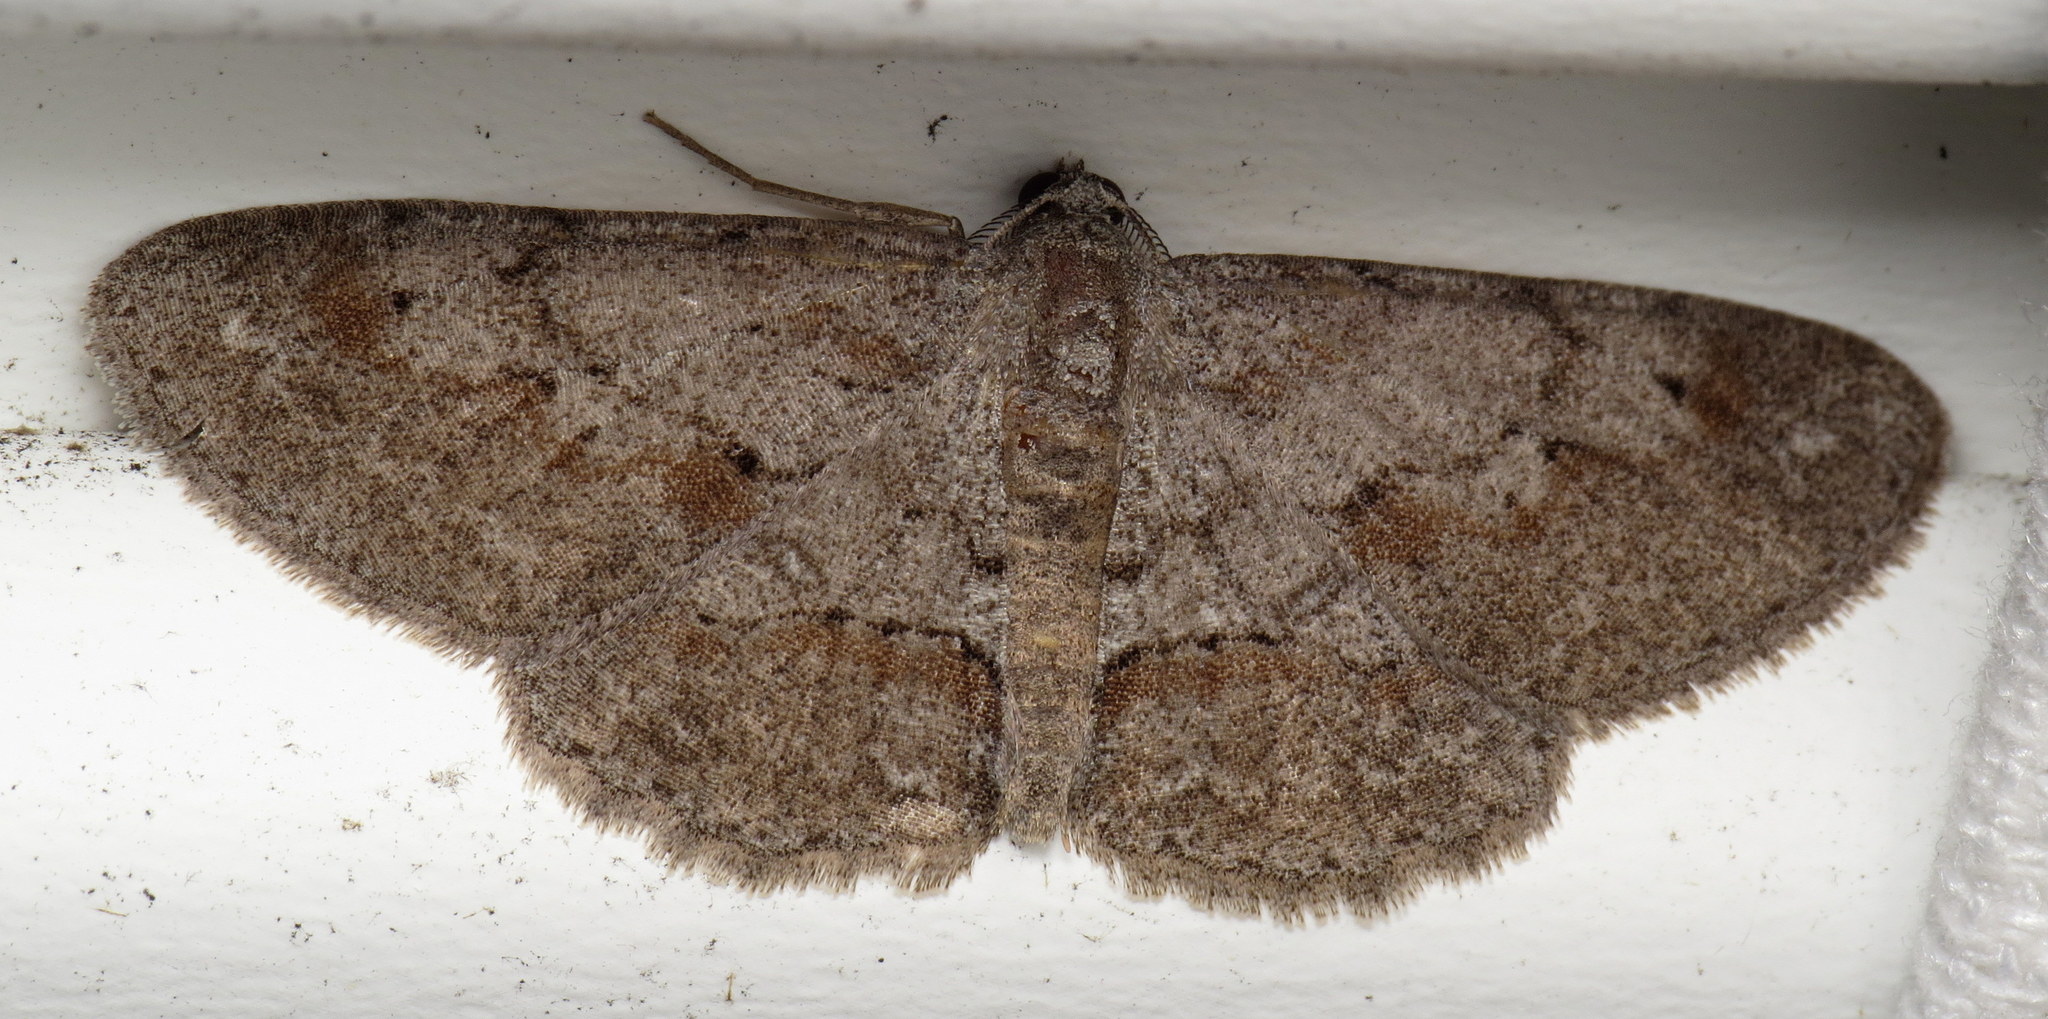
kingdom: Animalia
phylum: Arthropoda
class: Insecta
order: Lepidoptera
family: Geometridae
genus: Iridopsis
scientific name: Iridopsis vellivolata
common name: Large purplish gray
